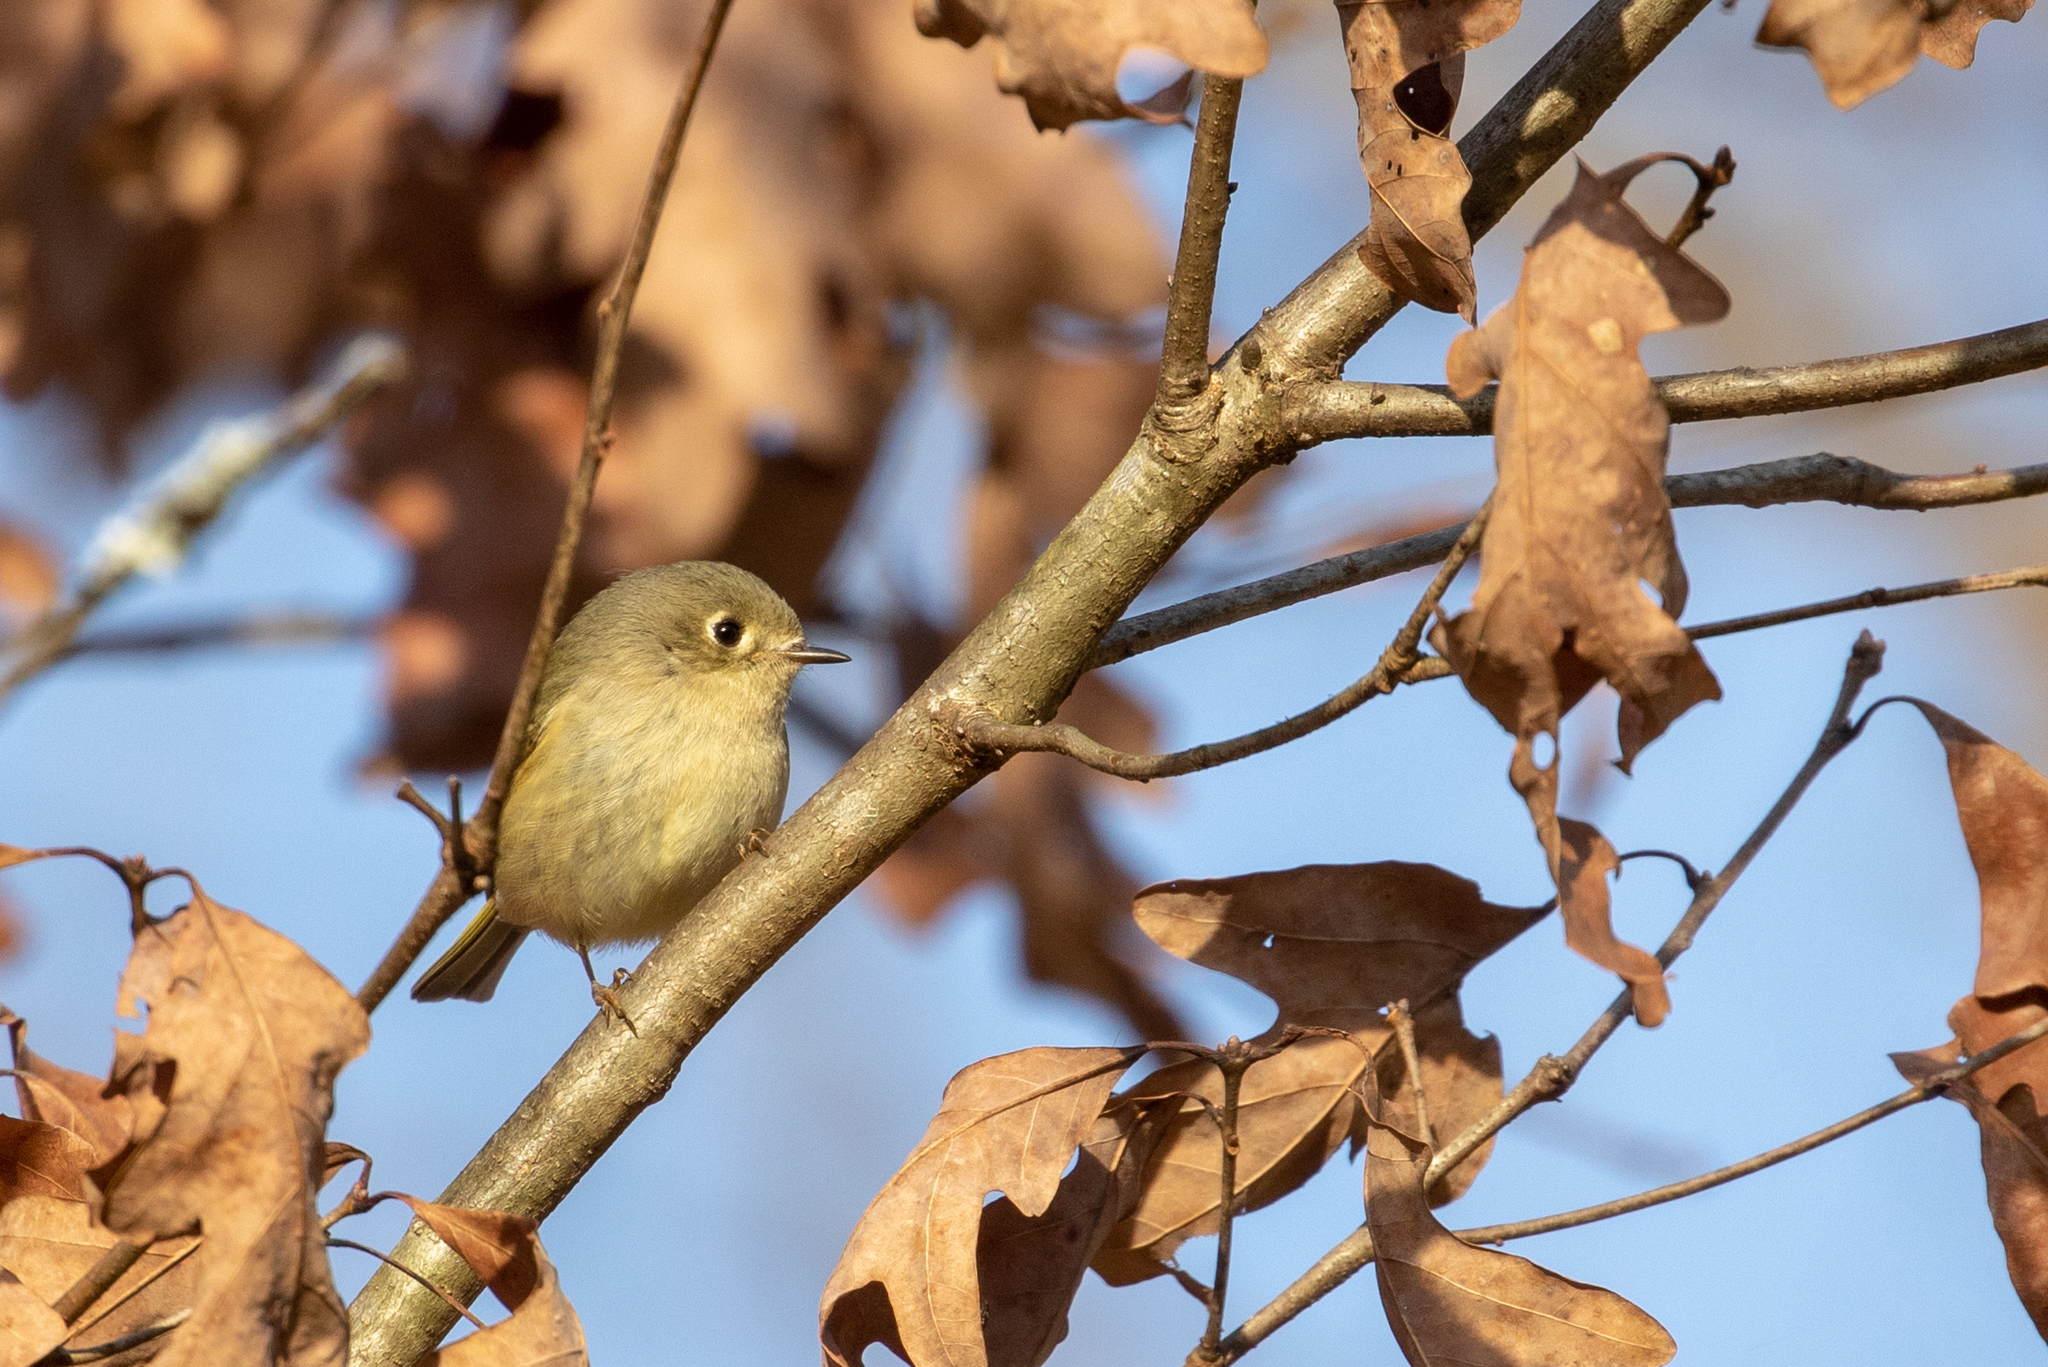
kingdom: Animalia
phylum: Chordata
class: Aves
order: Passeriformes
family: Regulidae
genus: Regulus
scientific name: Regulus calendula
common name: Ruby-crowned kinglet
